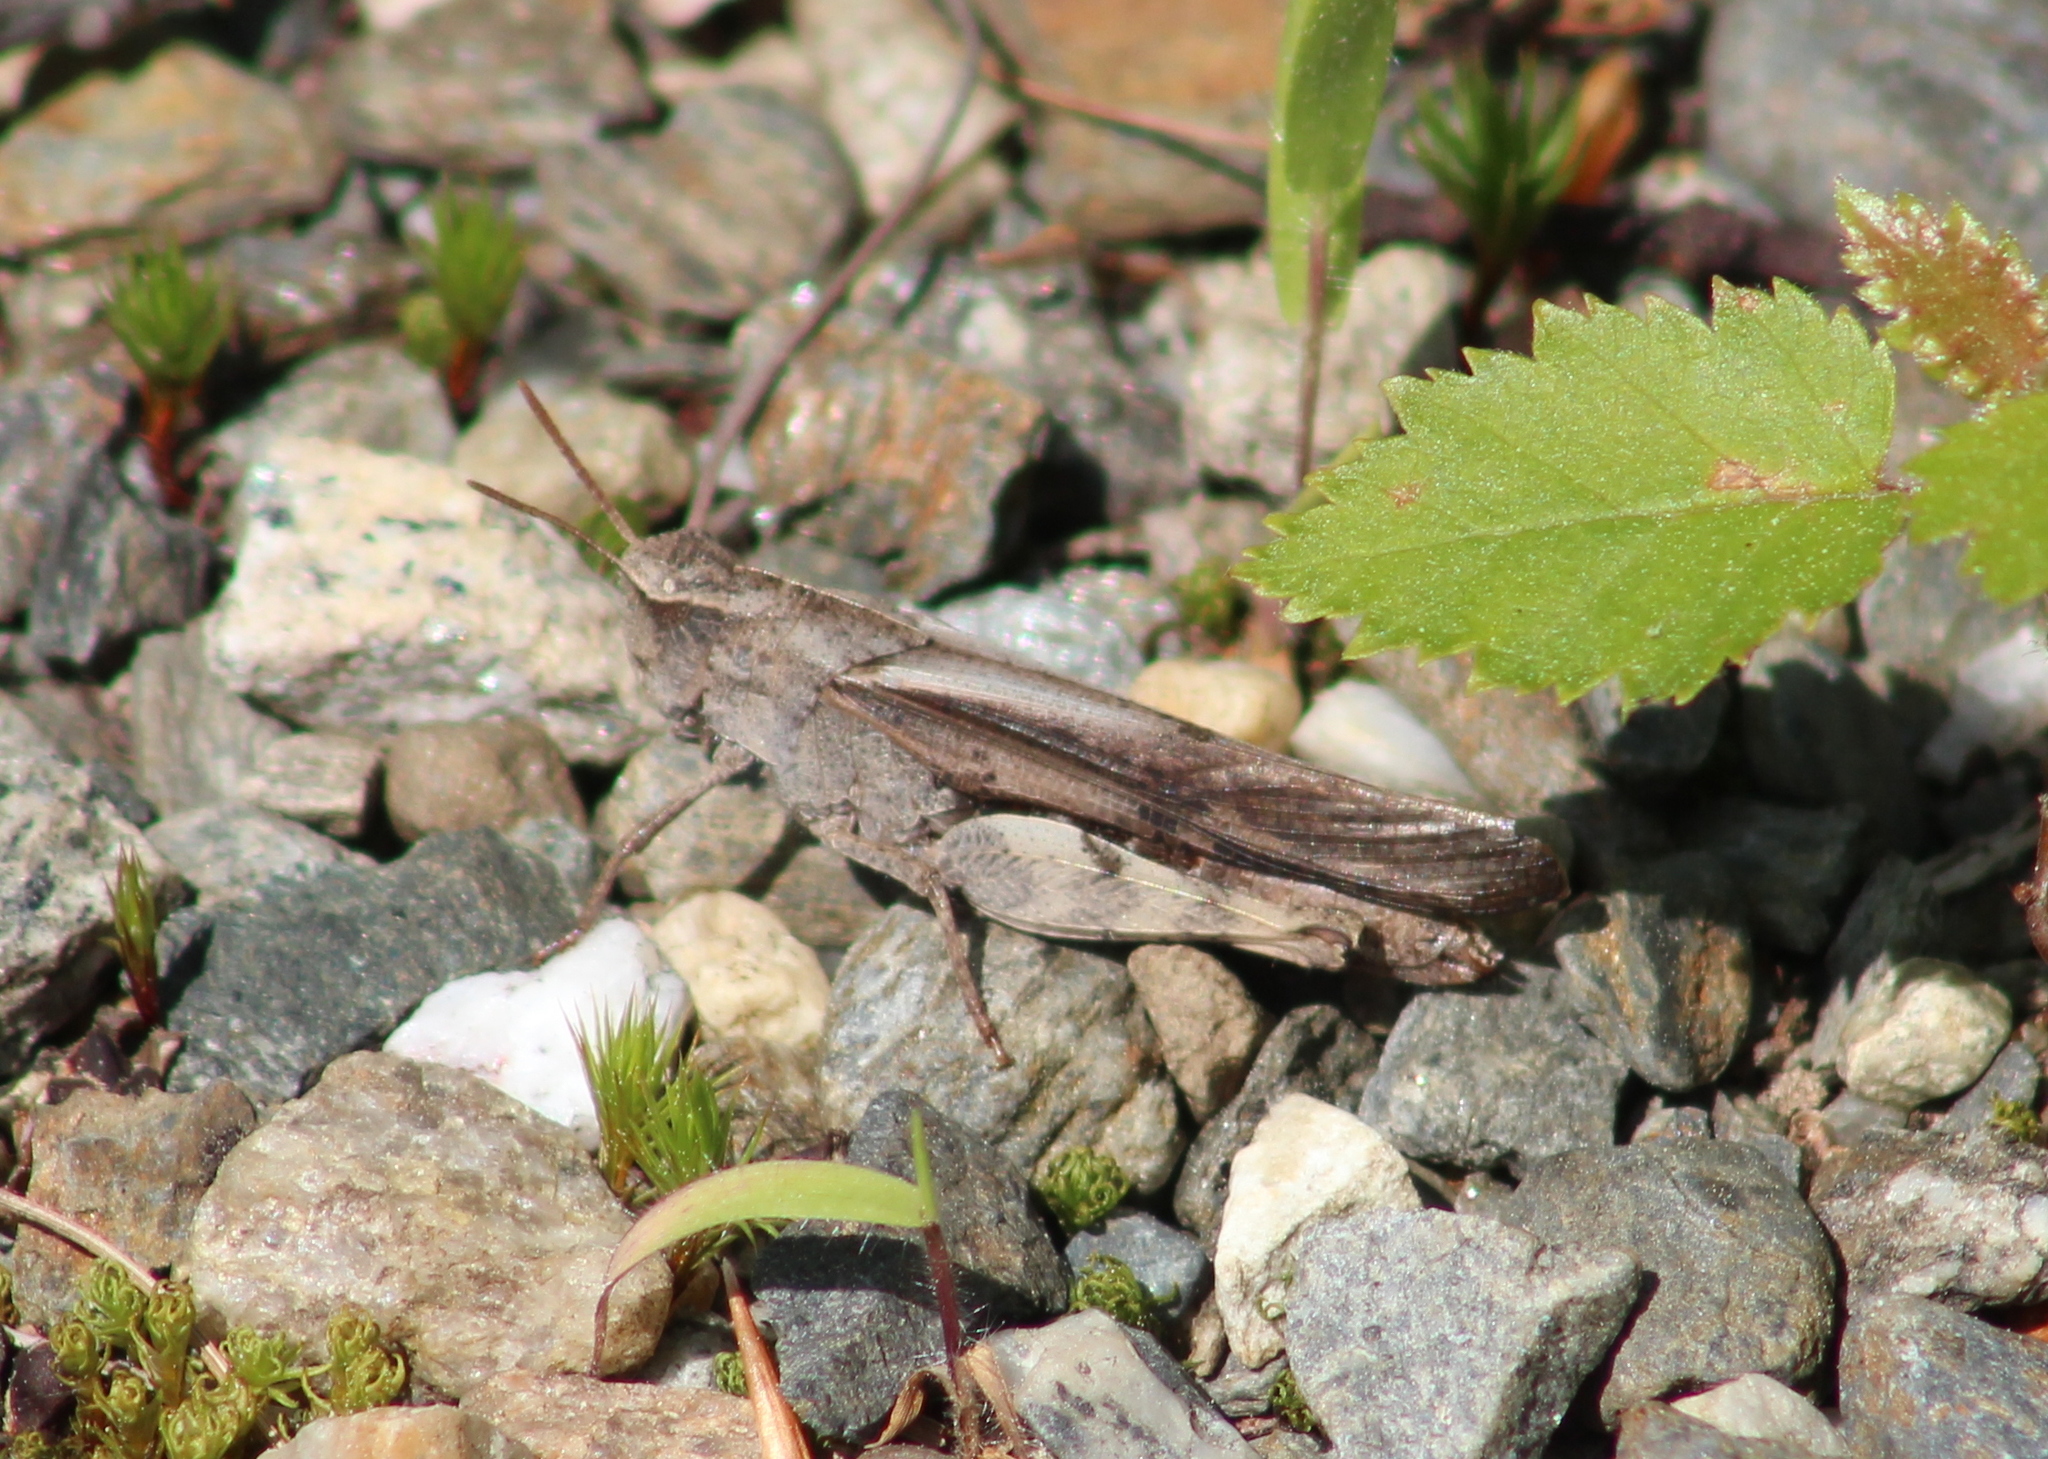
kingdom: Animalia
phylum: Arthropoda
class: Insecta
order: Orthoptera
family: Acrididae
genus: Chortophaga
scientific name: Chortophaga viridifasciata
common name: Green-striped grasshopper
